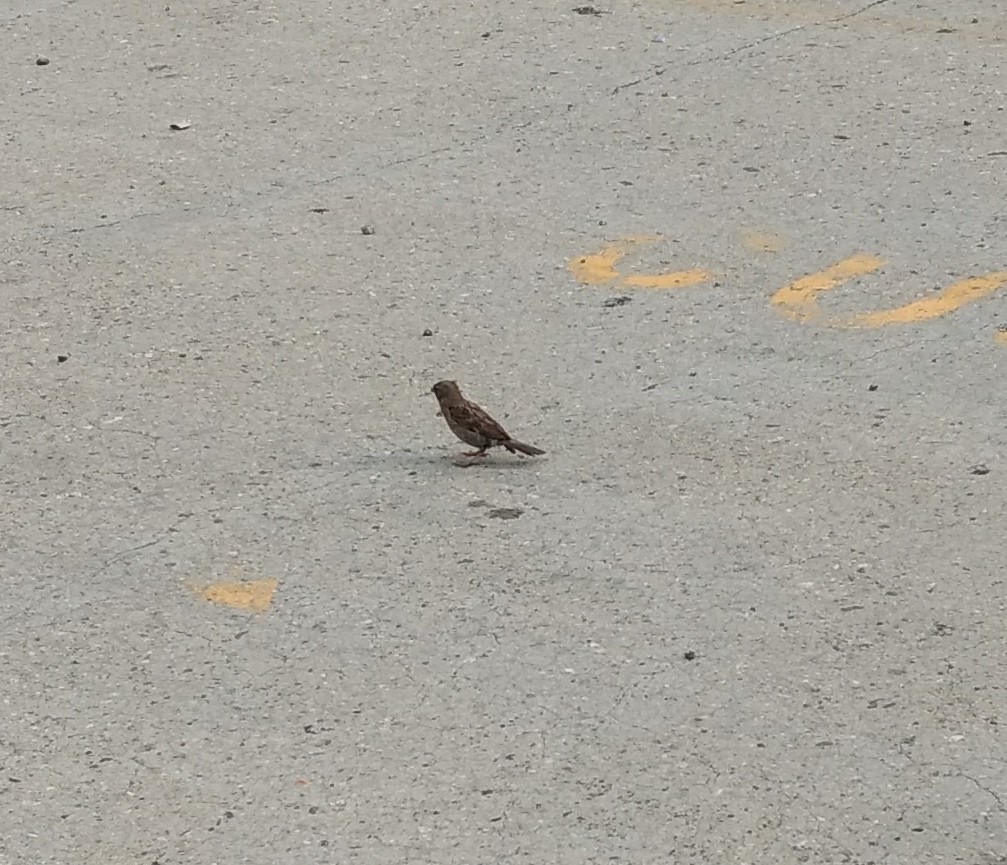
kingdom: Animalia
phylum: Chordata
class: Aves
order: Passeriformes
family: Passeridae
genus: Passer
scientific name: Passer domesticus
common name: House sparrow
